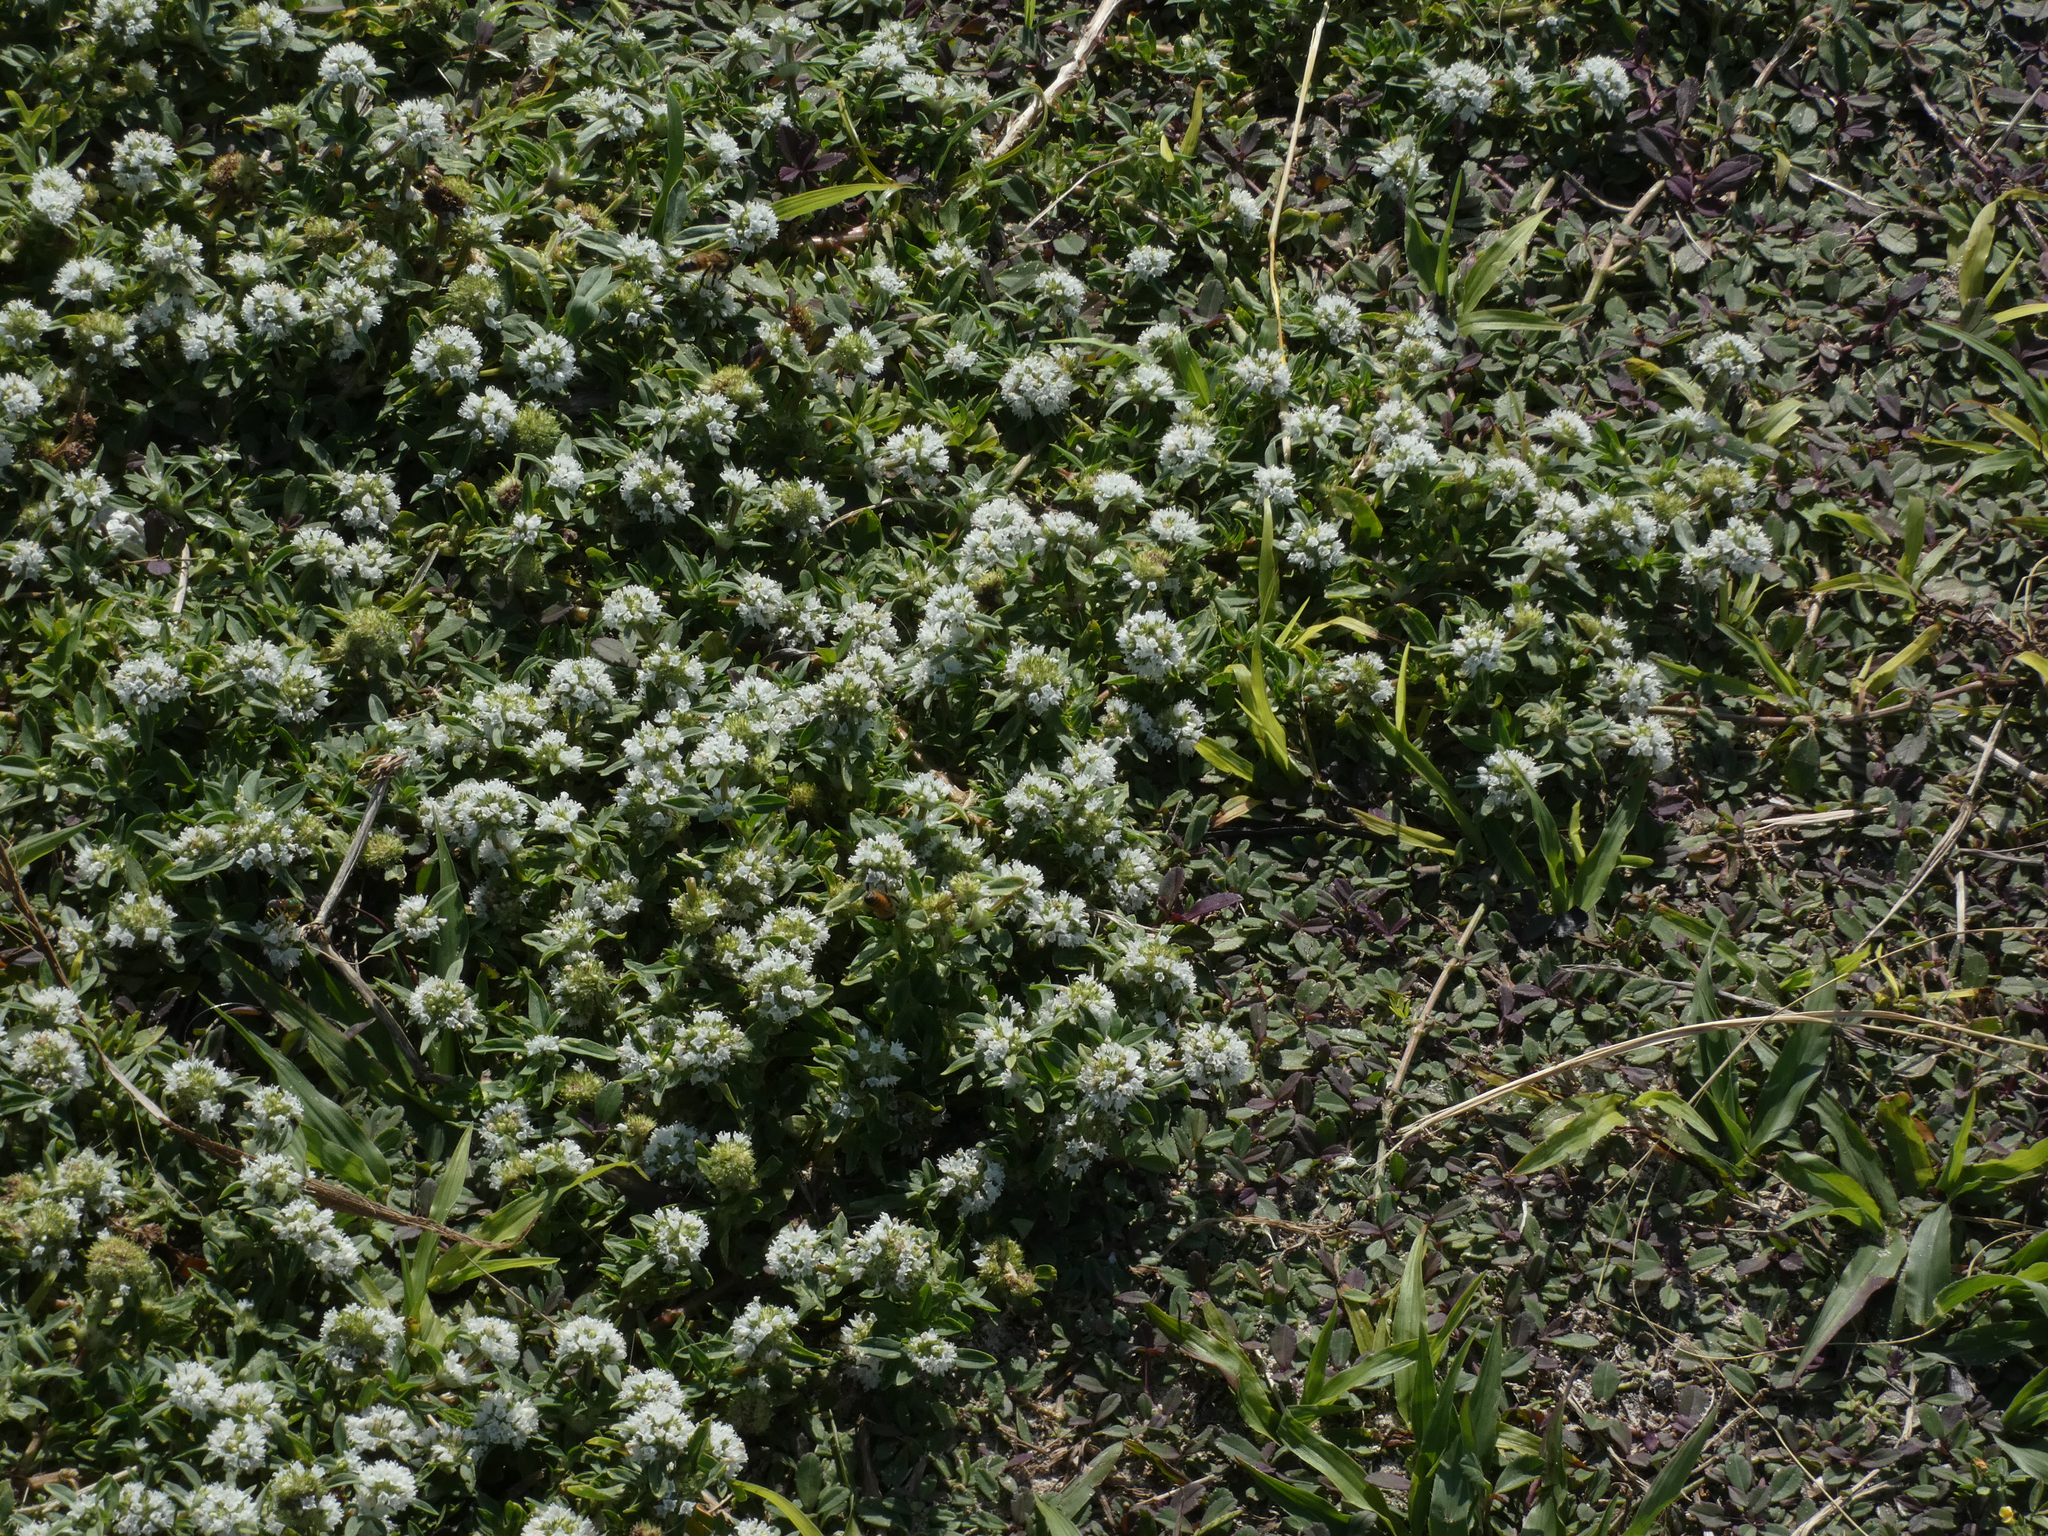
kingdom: Plantae
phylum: Tracheophyta
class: Magnoliopsida
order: Gentianales
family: Rubiaceae
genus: Spermacoce
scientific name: Spermacoce verticillata
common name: Shrubby false buttonweed
